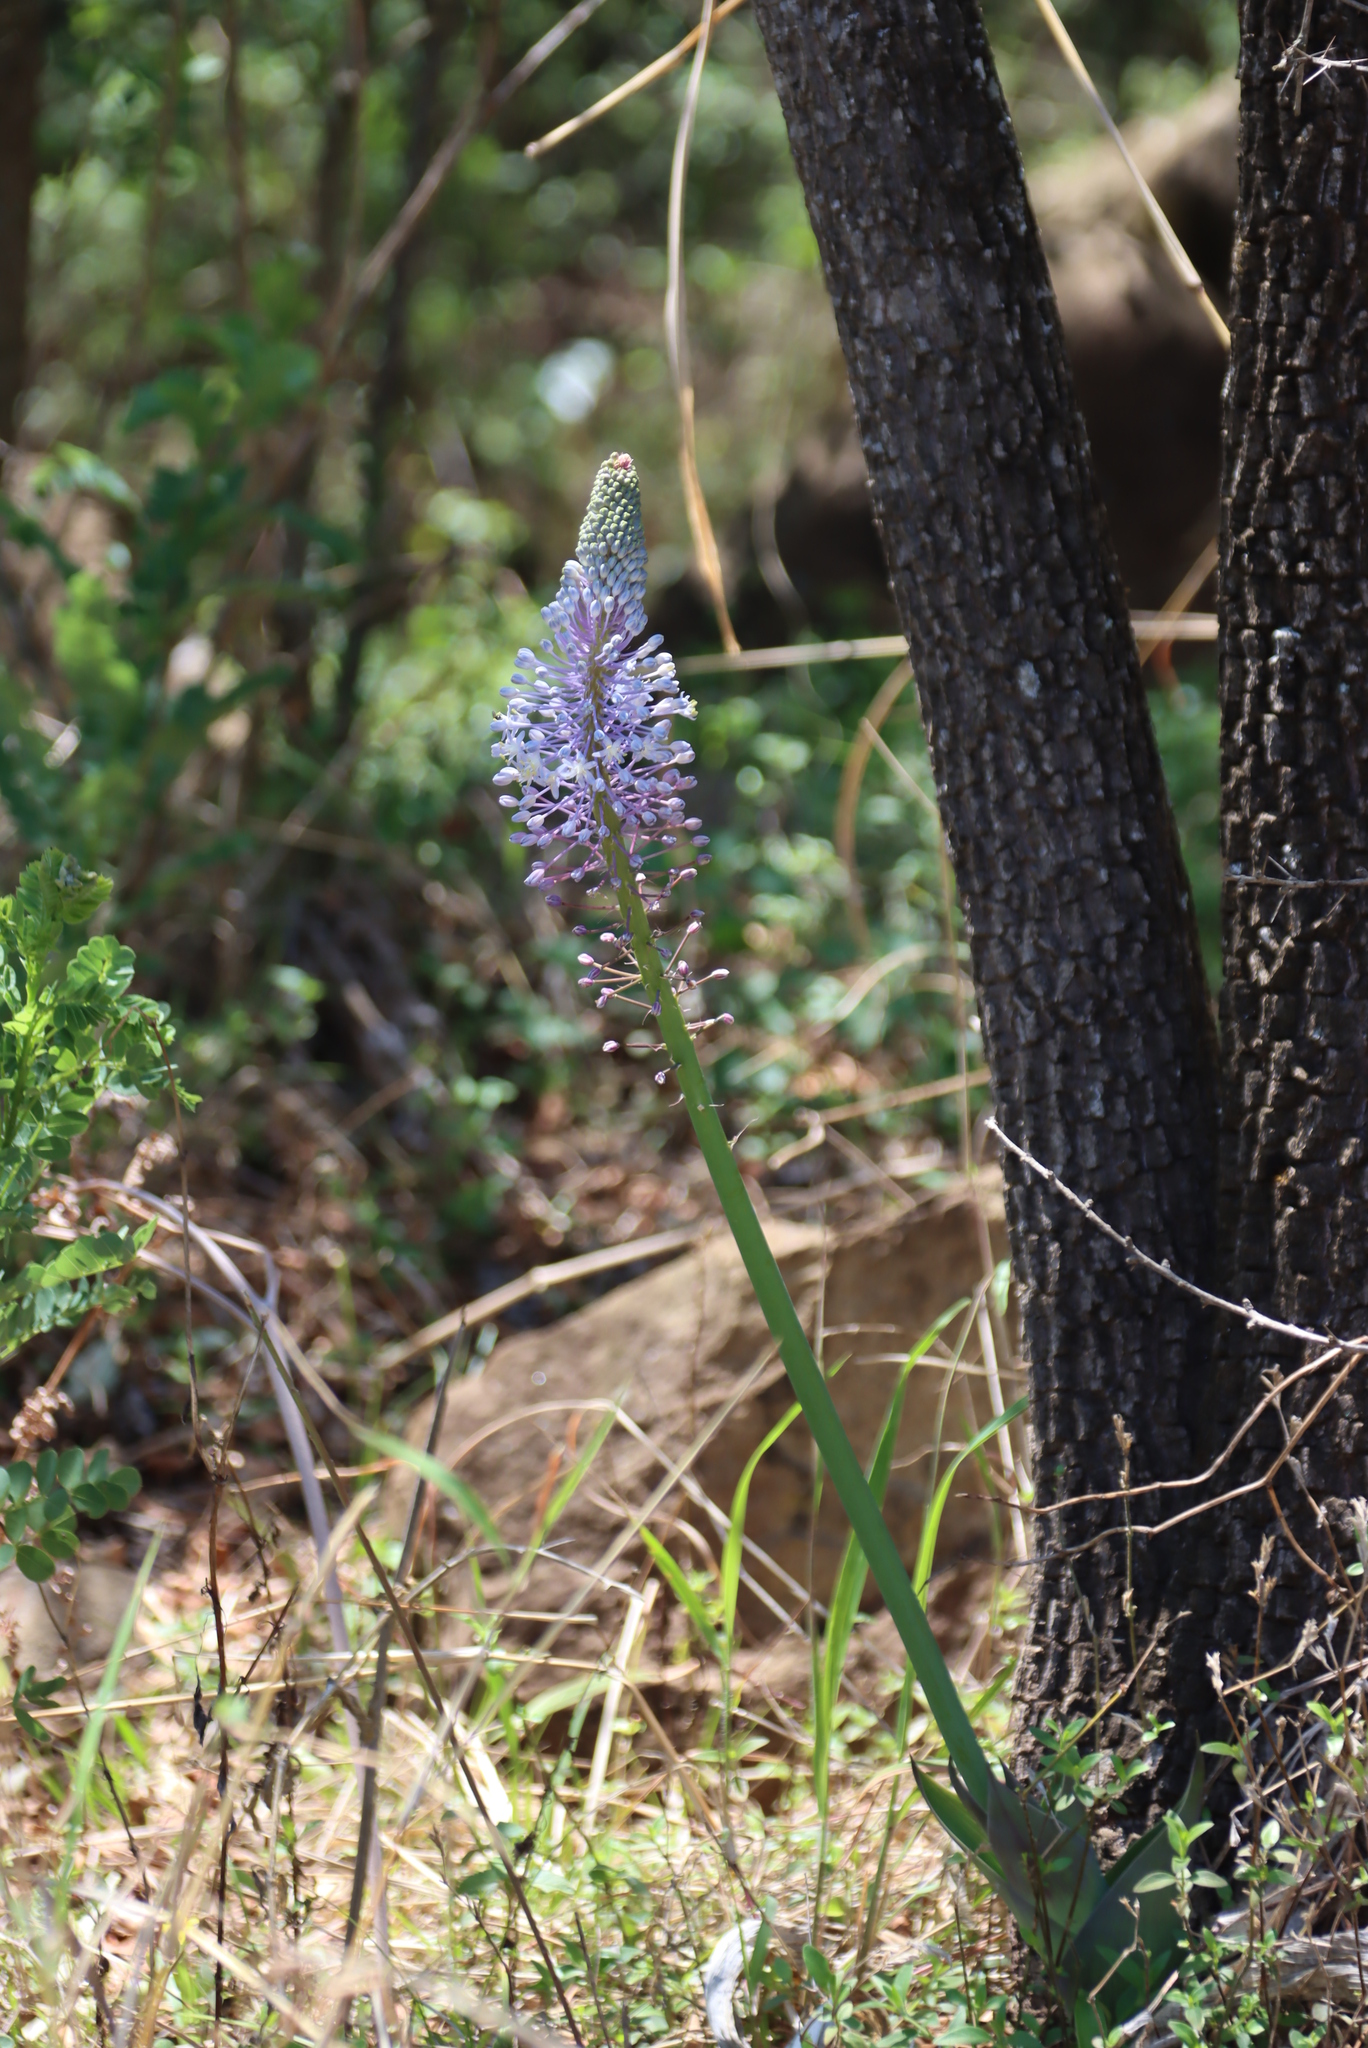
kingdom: Plantae
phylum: Tracheophyta
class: Liliopsida
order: Asparagales
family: Asparagaceae
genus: Merwilla
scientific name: Merwilla plumbea
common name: Blue-squill
